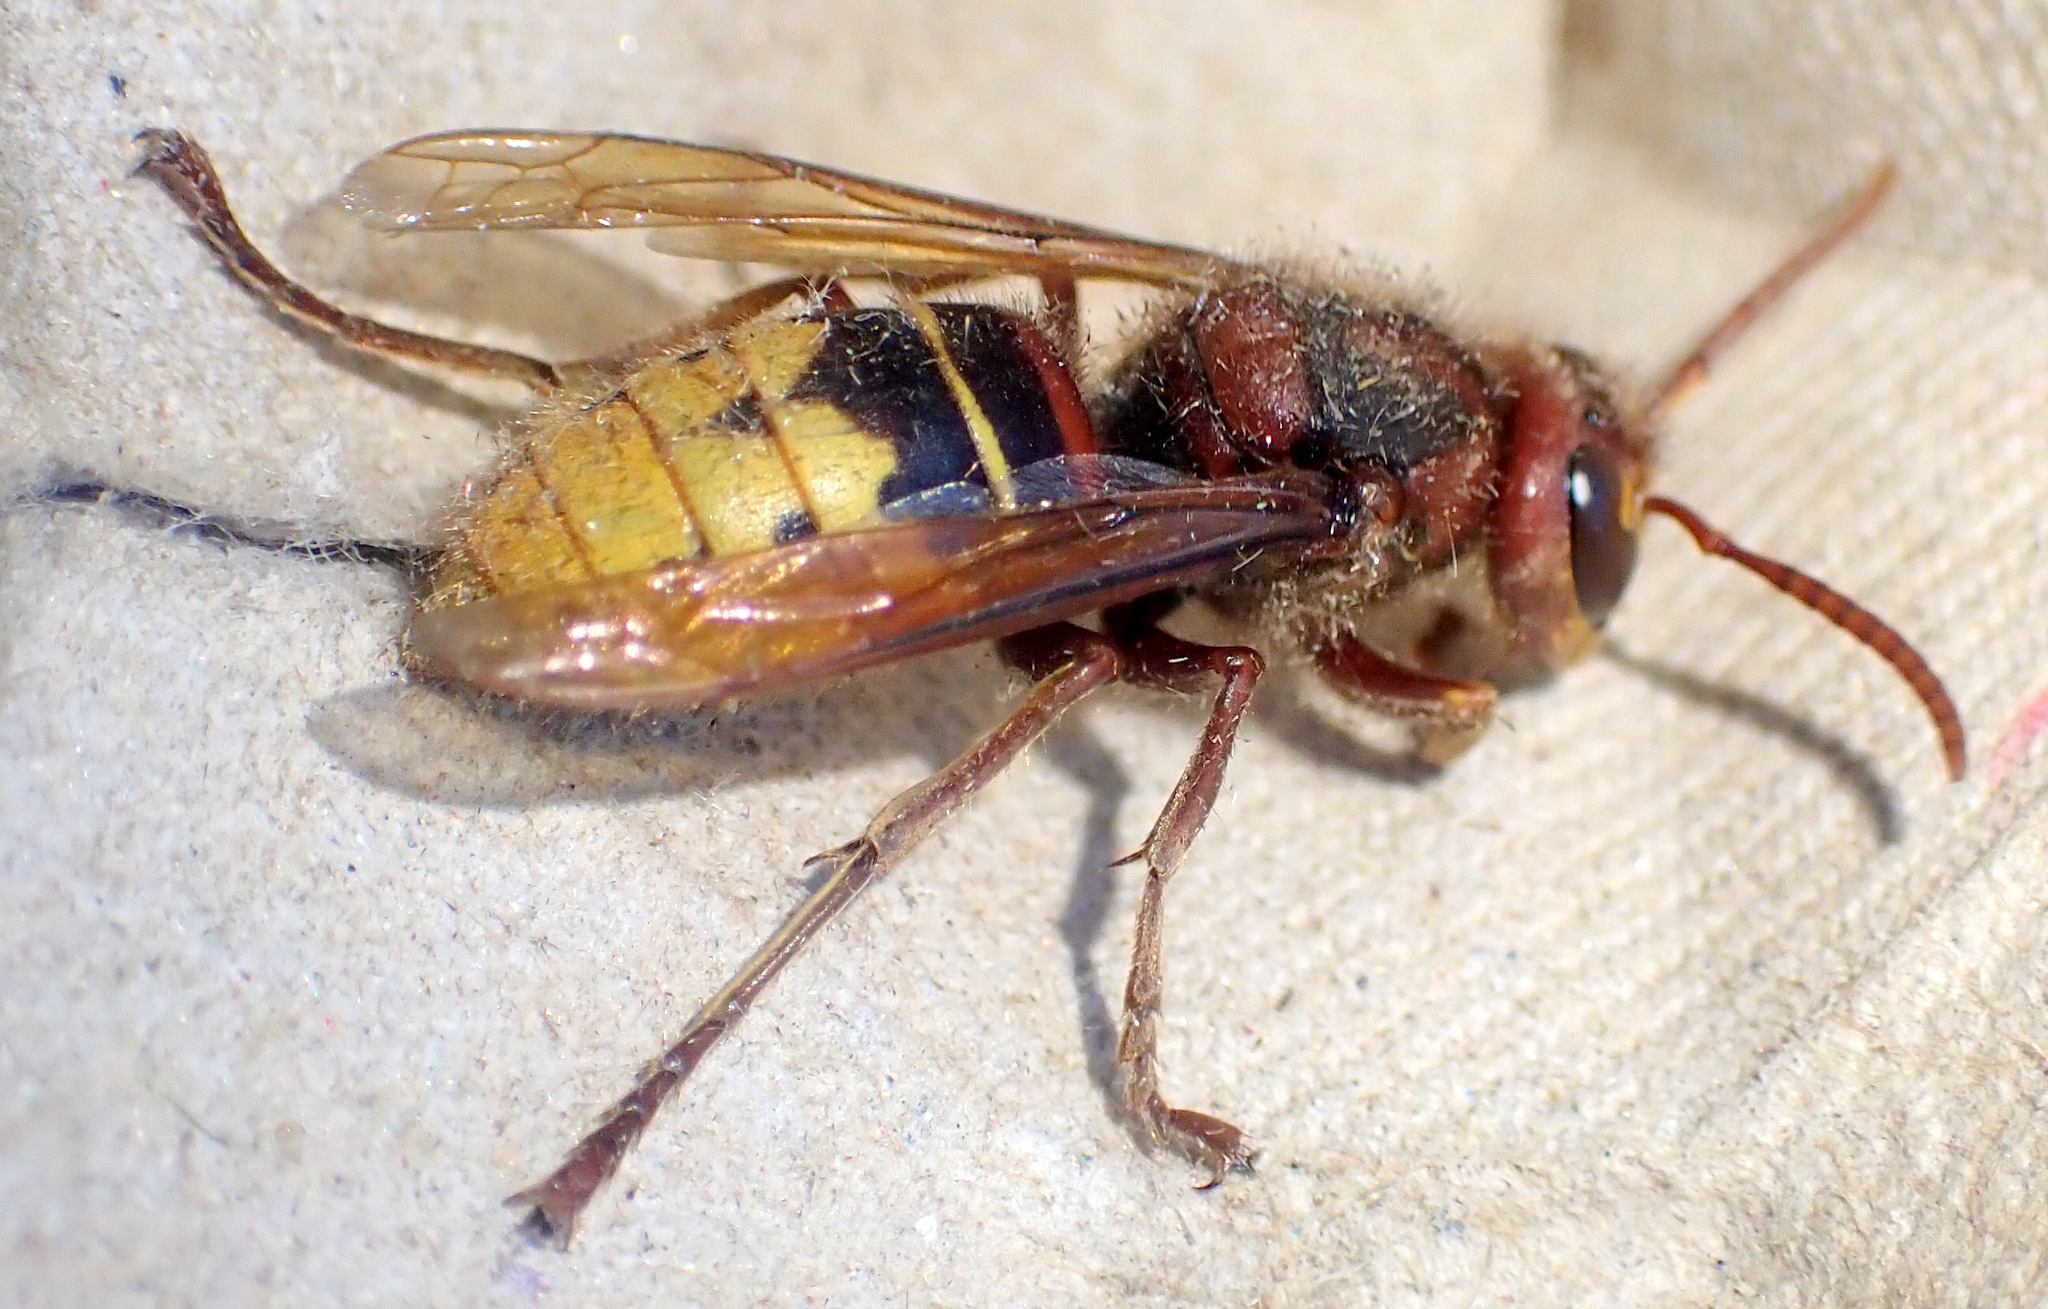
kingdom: Animalia
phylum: Arthropoda
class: Insecta
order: Hymenoptera
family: Vespidae
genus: Vespa
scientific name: Vespa crabro
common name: Hornet
